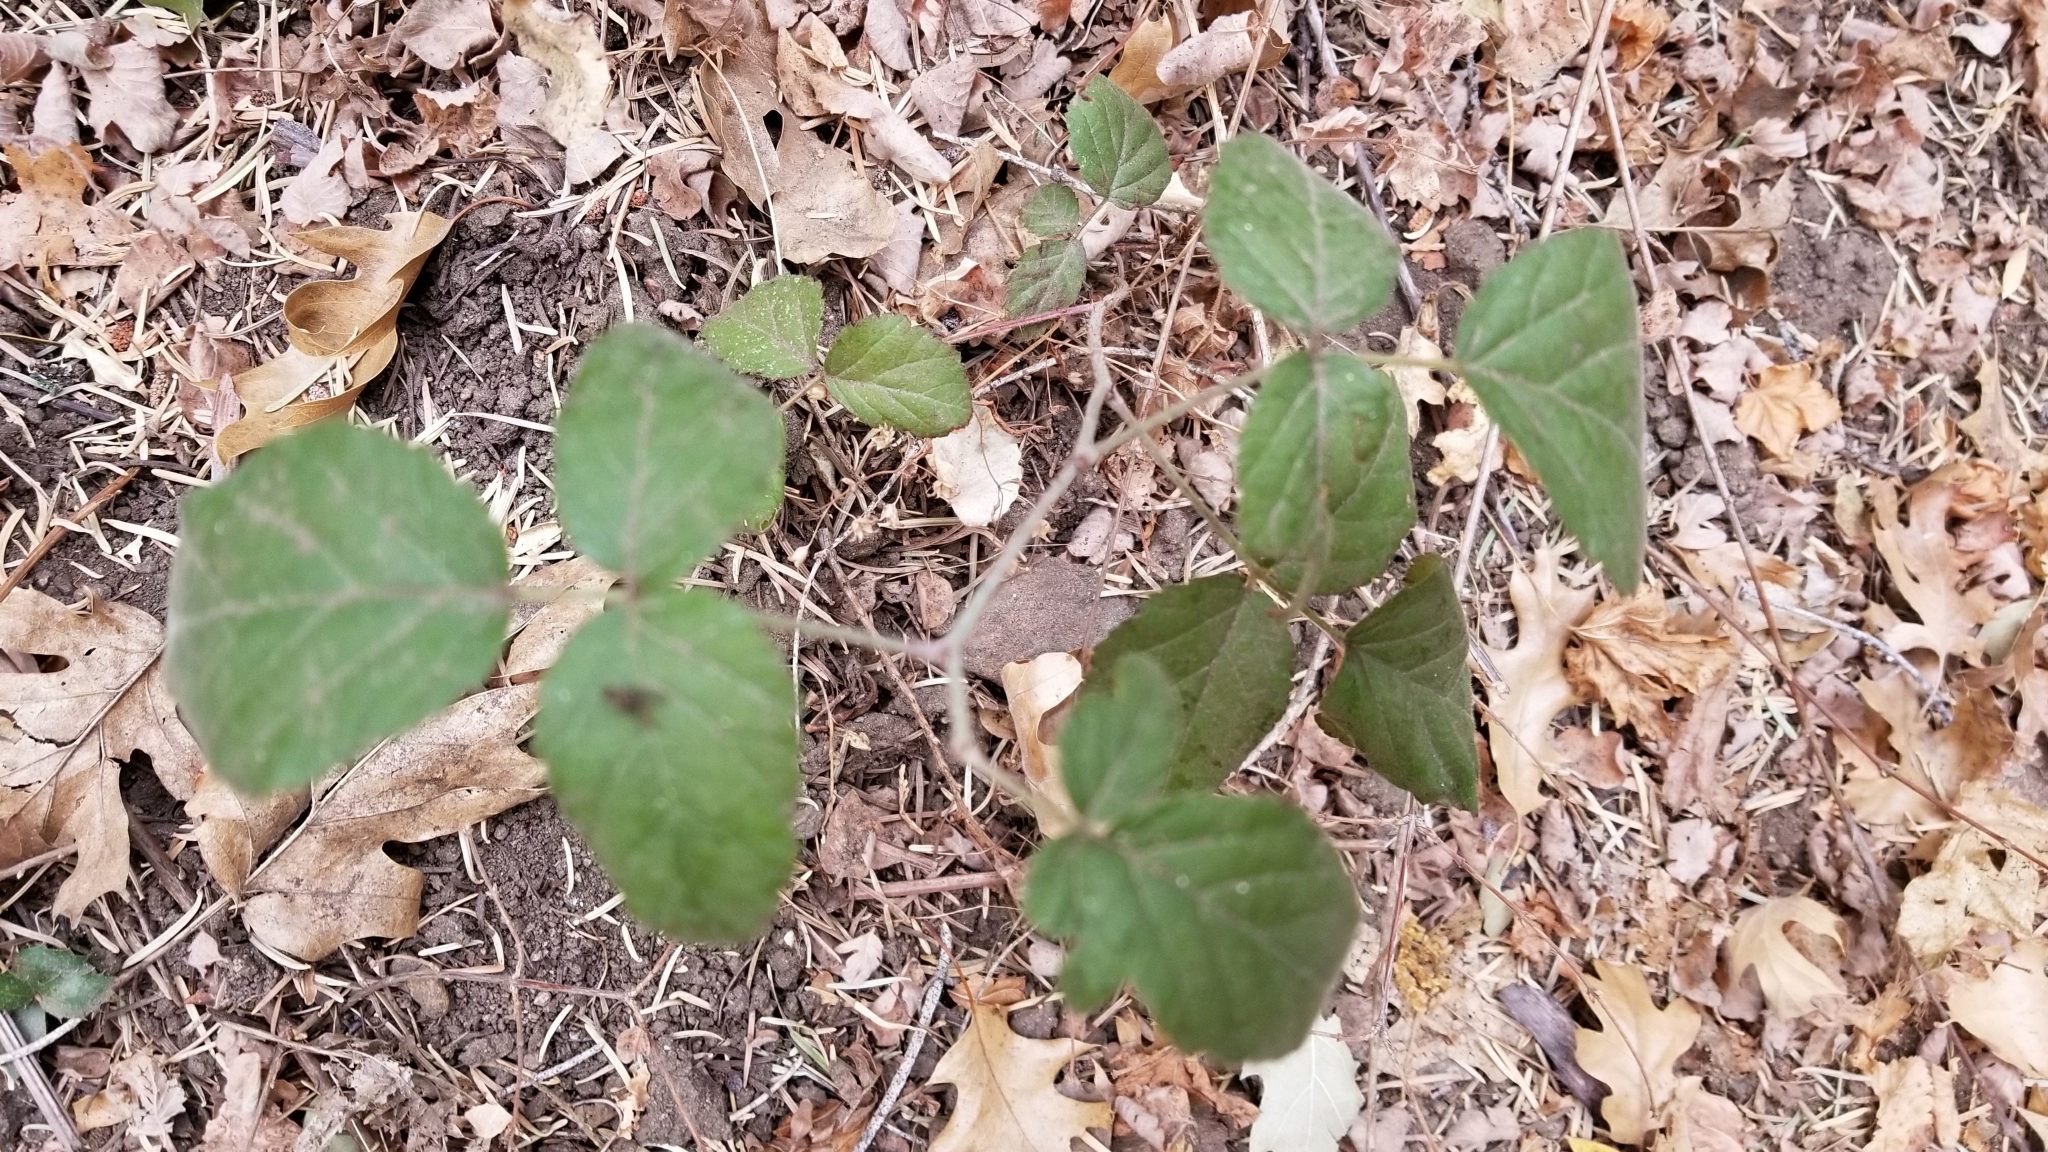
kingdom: Plantae
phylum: Tracheophyta
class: Magnoliopsida
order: Rosales
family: Rosaceae
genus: Rubus
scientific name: Rubus ursinus
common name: Pacific blackberry
